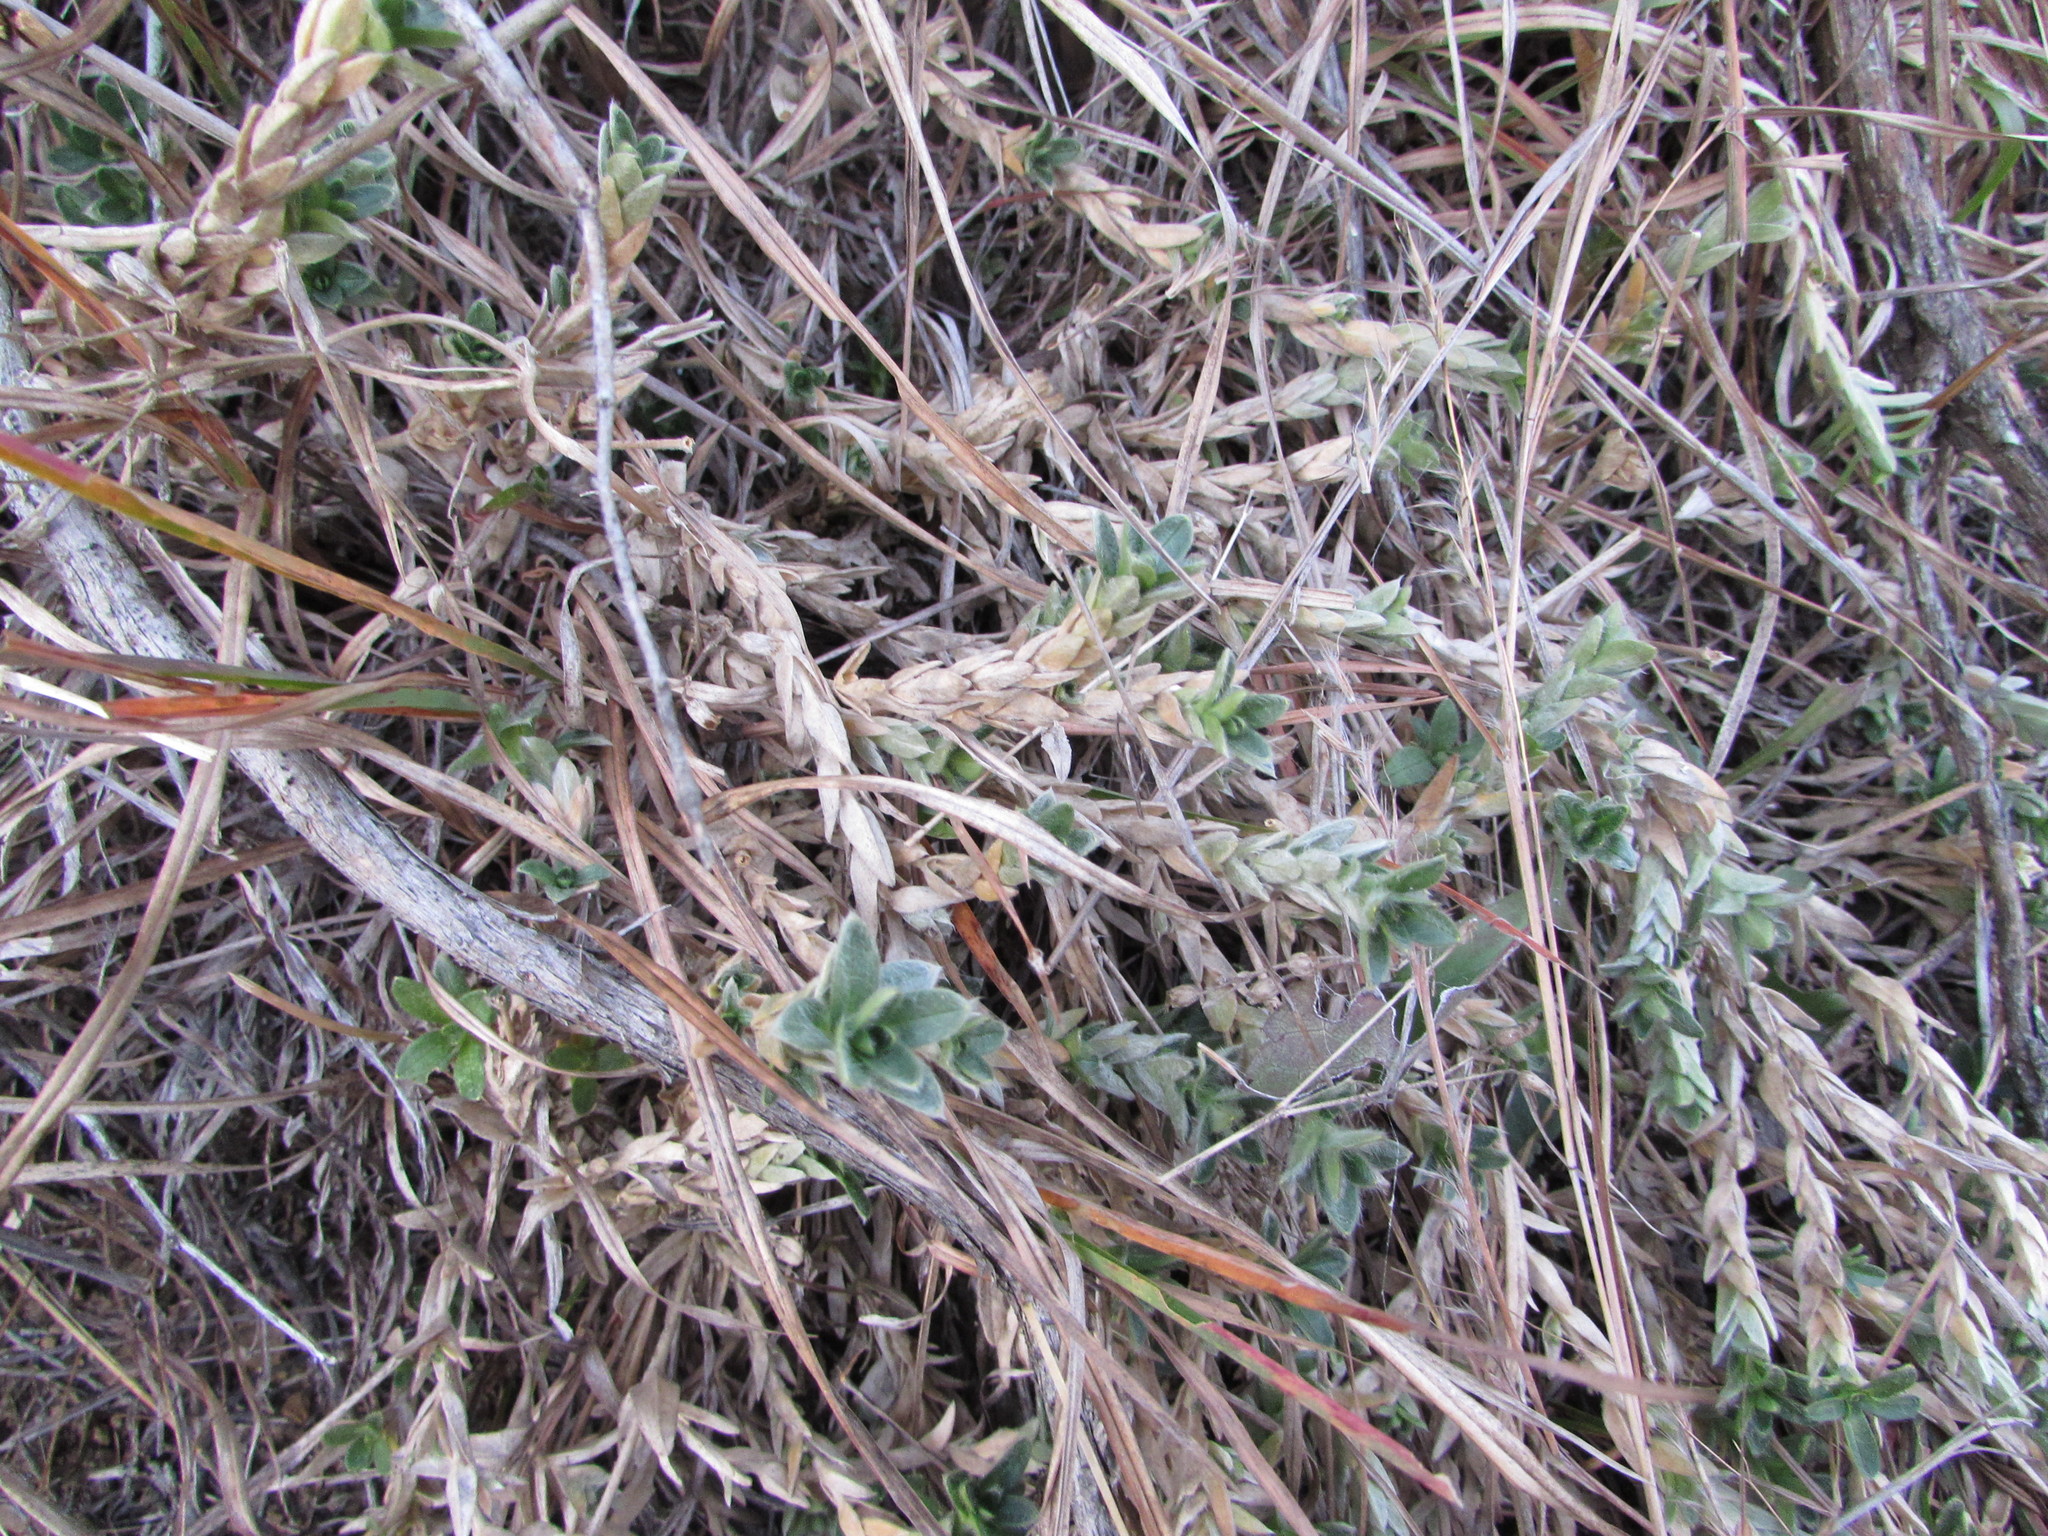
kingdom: Plantae
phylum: Tracheophyta
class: Magnoliopsida
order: Caryophyllales
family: Caryophyllaceae
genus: Cerastium
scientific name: Cerastium velutinum
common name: Barren chickweed
